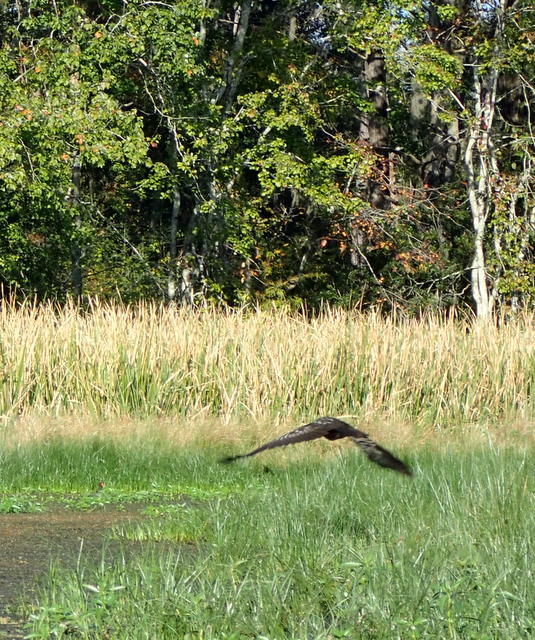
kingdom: Animalia
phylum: Chordata
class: Aves
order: Gruiformes
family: Aramidae
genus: Aramus
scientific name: Aramus guarauna
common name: Limpkin
